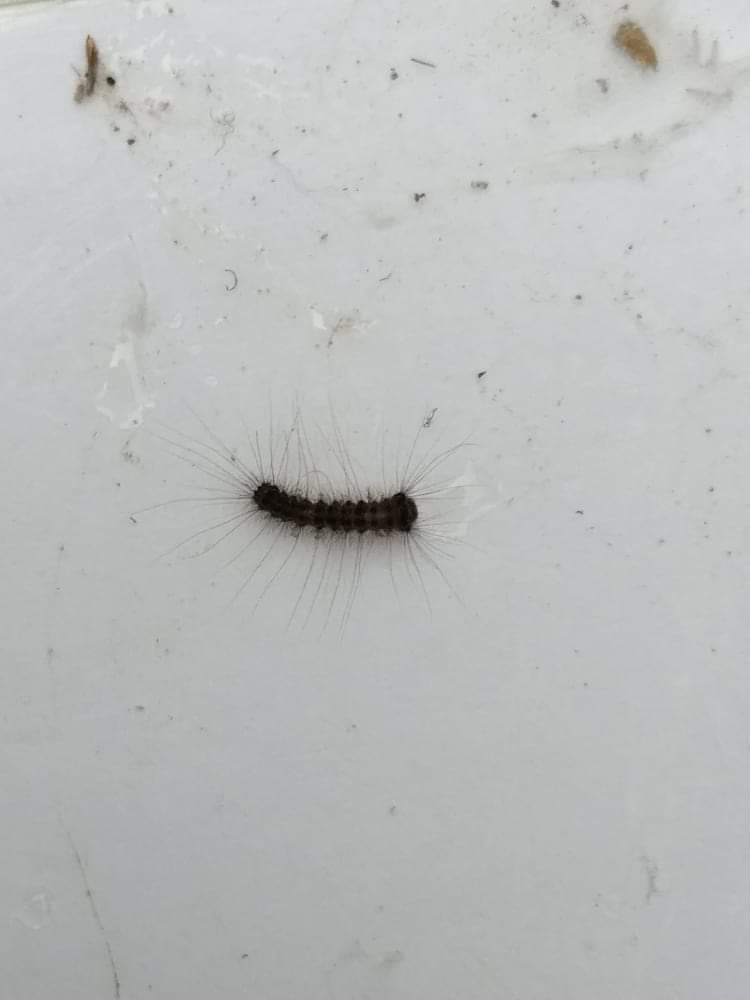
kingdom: Animalia
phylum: Arthropoda
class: Insecta
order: Lepidoptera
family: Erebidae
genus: Lymantria
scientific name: Lymantria dispar
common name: Gypsy moth
